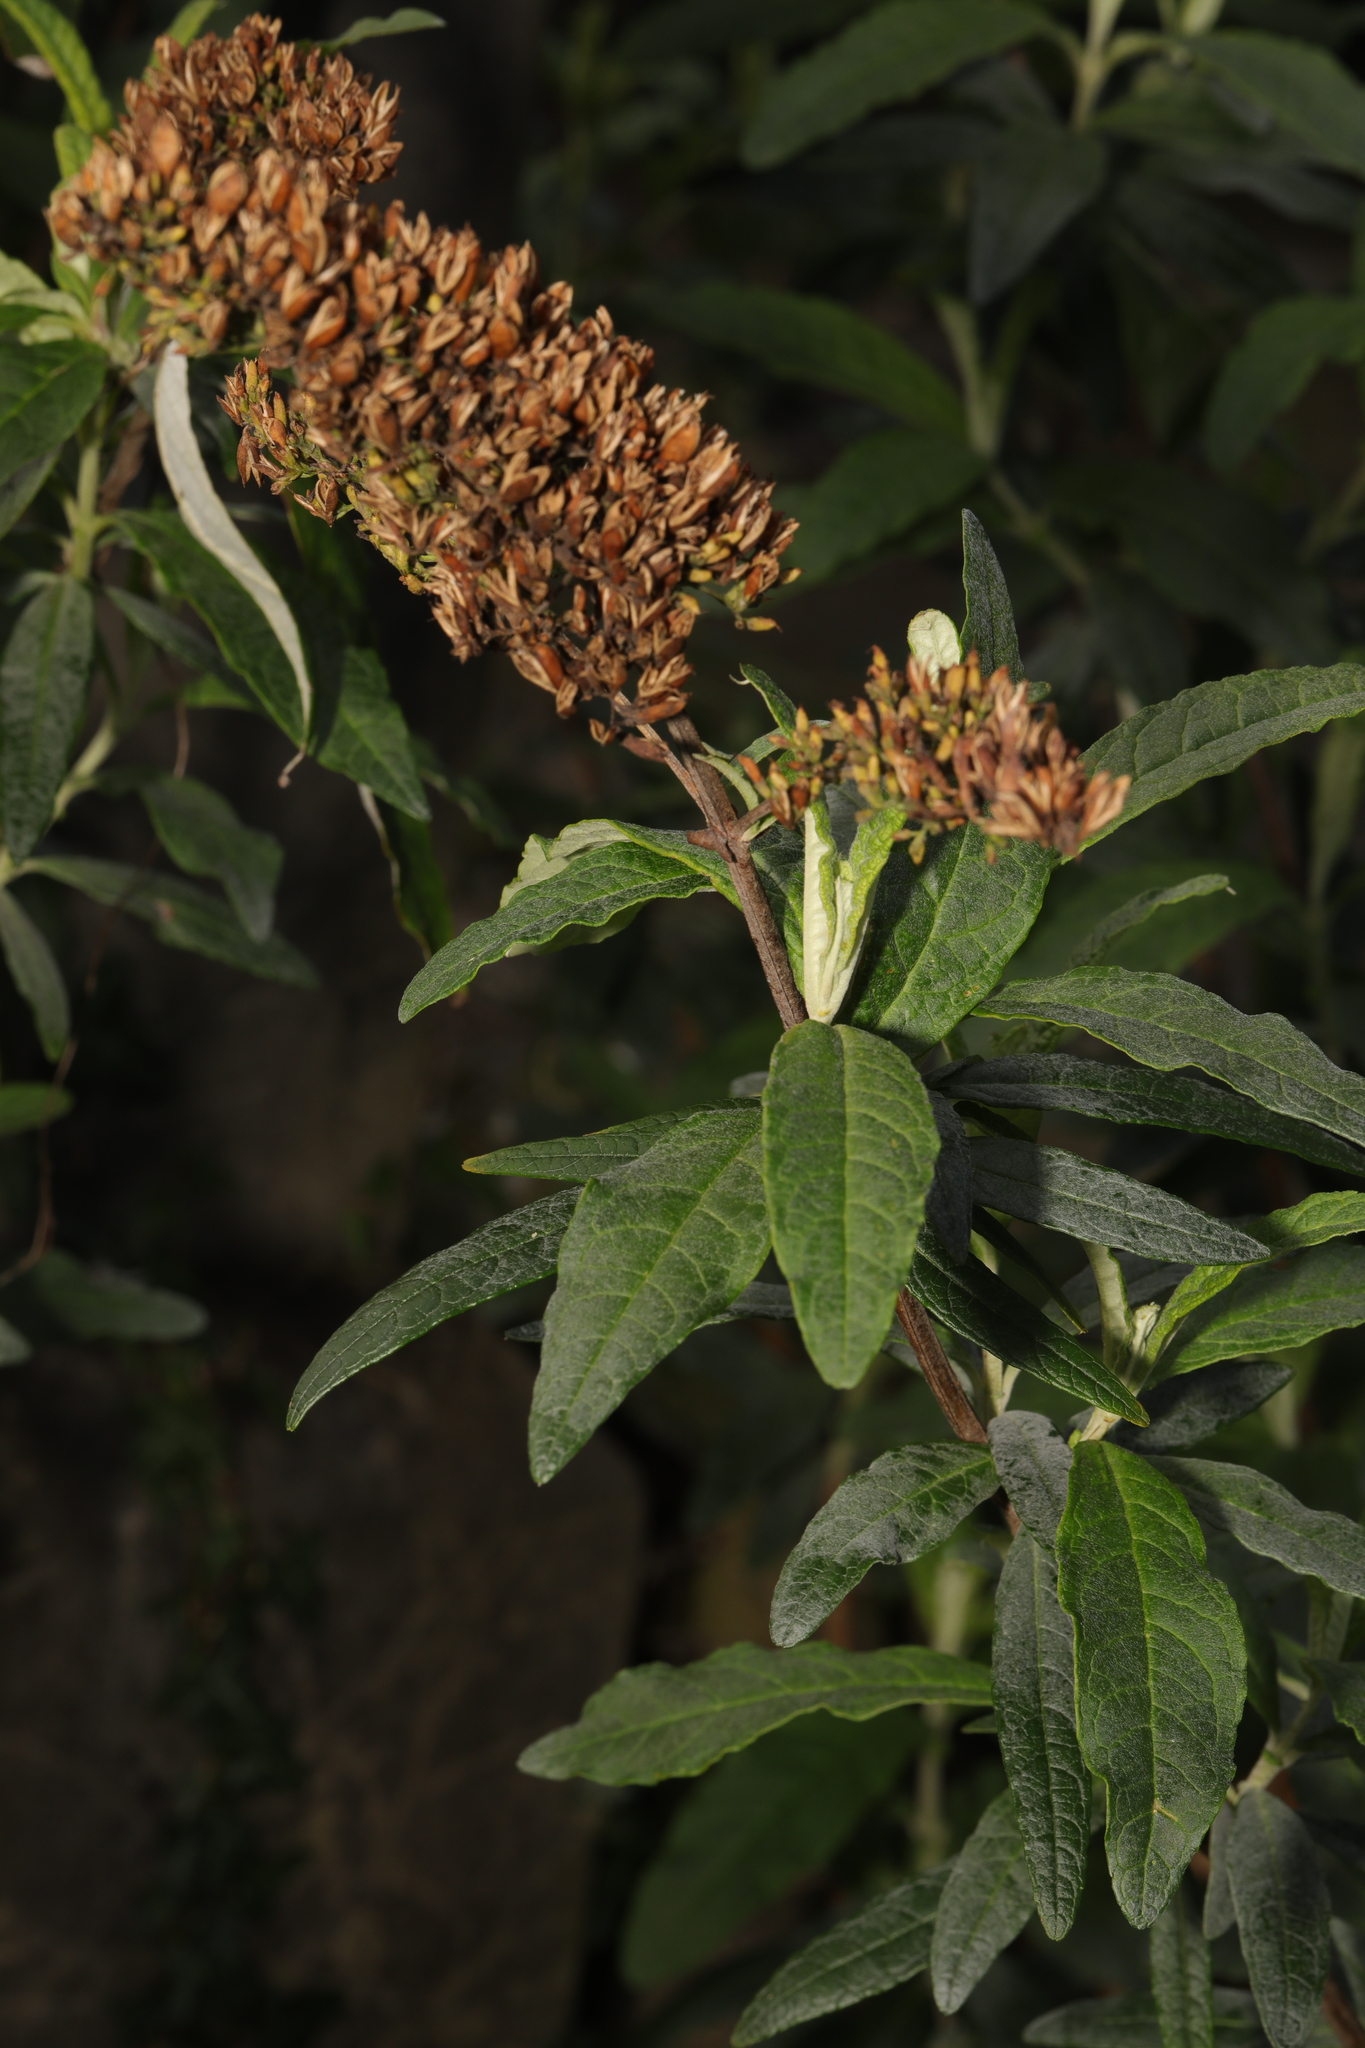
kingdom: Plantae
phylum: Tracheophyta
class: Magnoliopsida
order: Lamiales
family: Scrophulariaceae
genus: Buddleja
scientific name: Buddleja davidii
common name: Butterfly-bush
